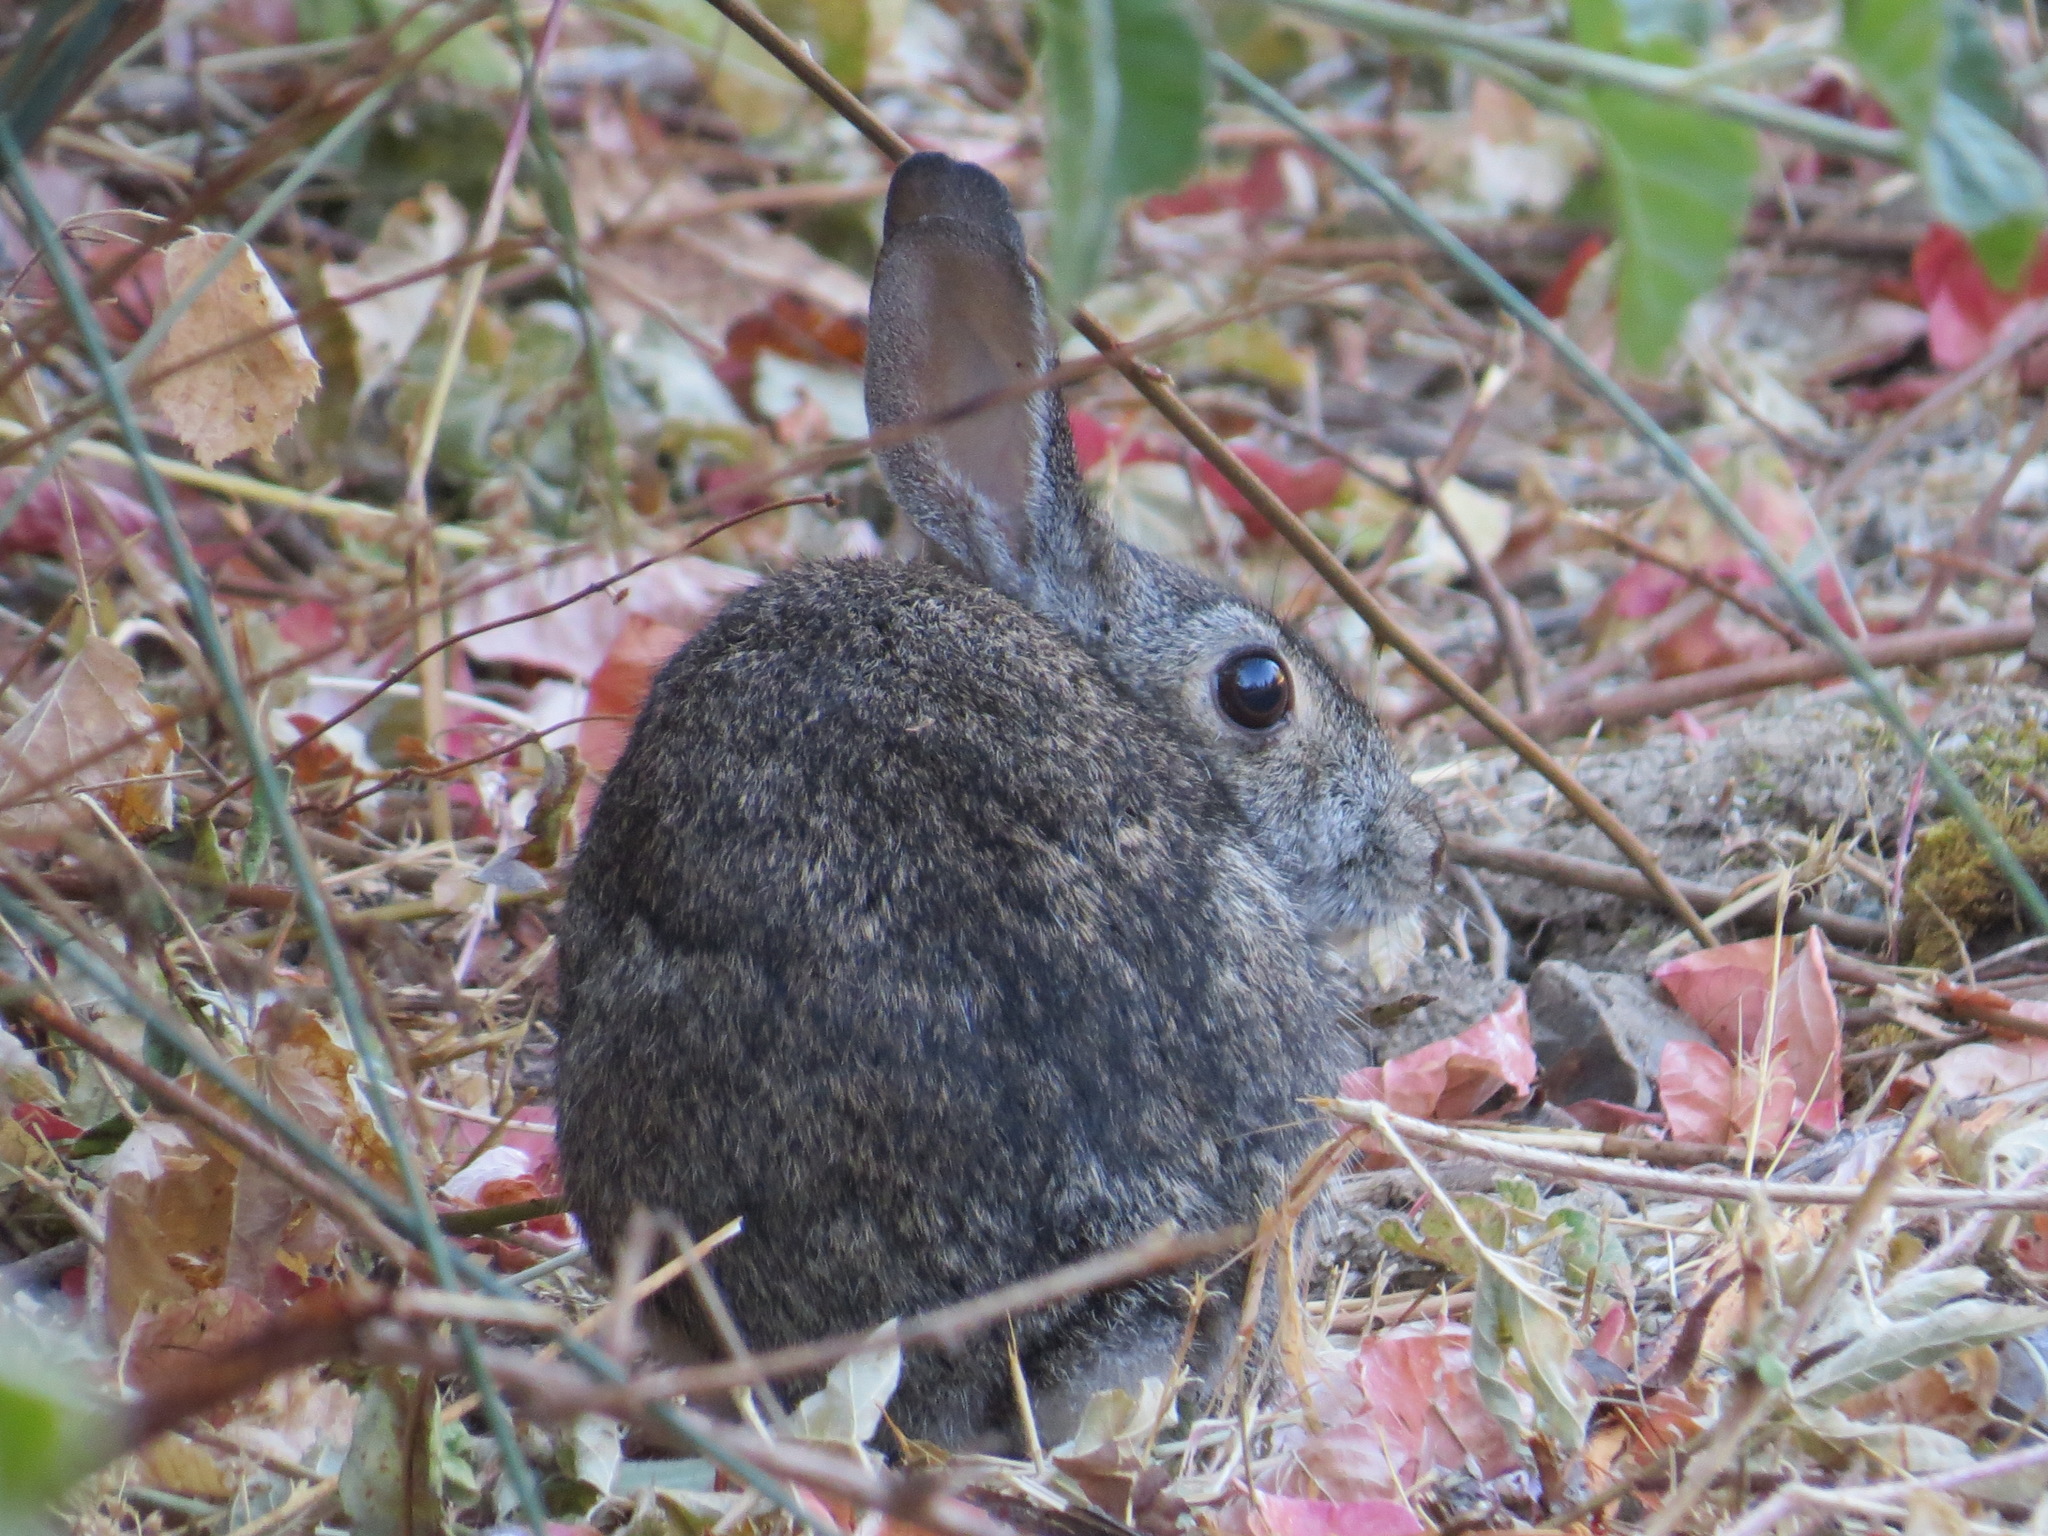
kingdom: Animalia
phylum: Chordata
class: Mammalia
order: Lagomorpha
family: Leporidae
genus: Sylvilagus
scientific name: Sylvilagus bachmani
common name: Brush rabbit
